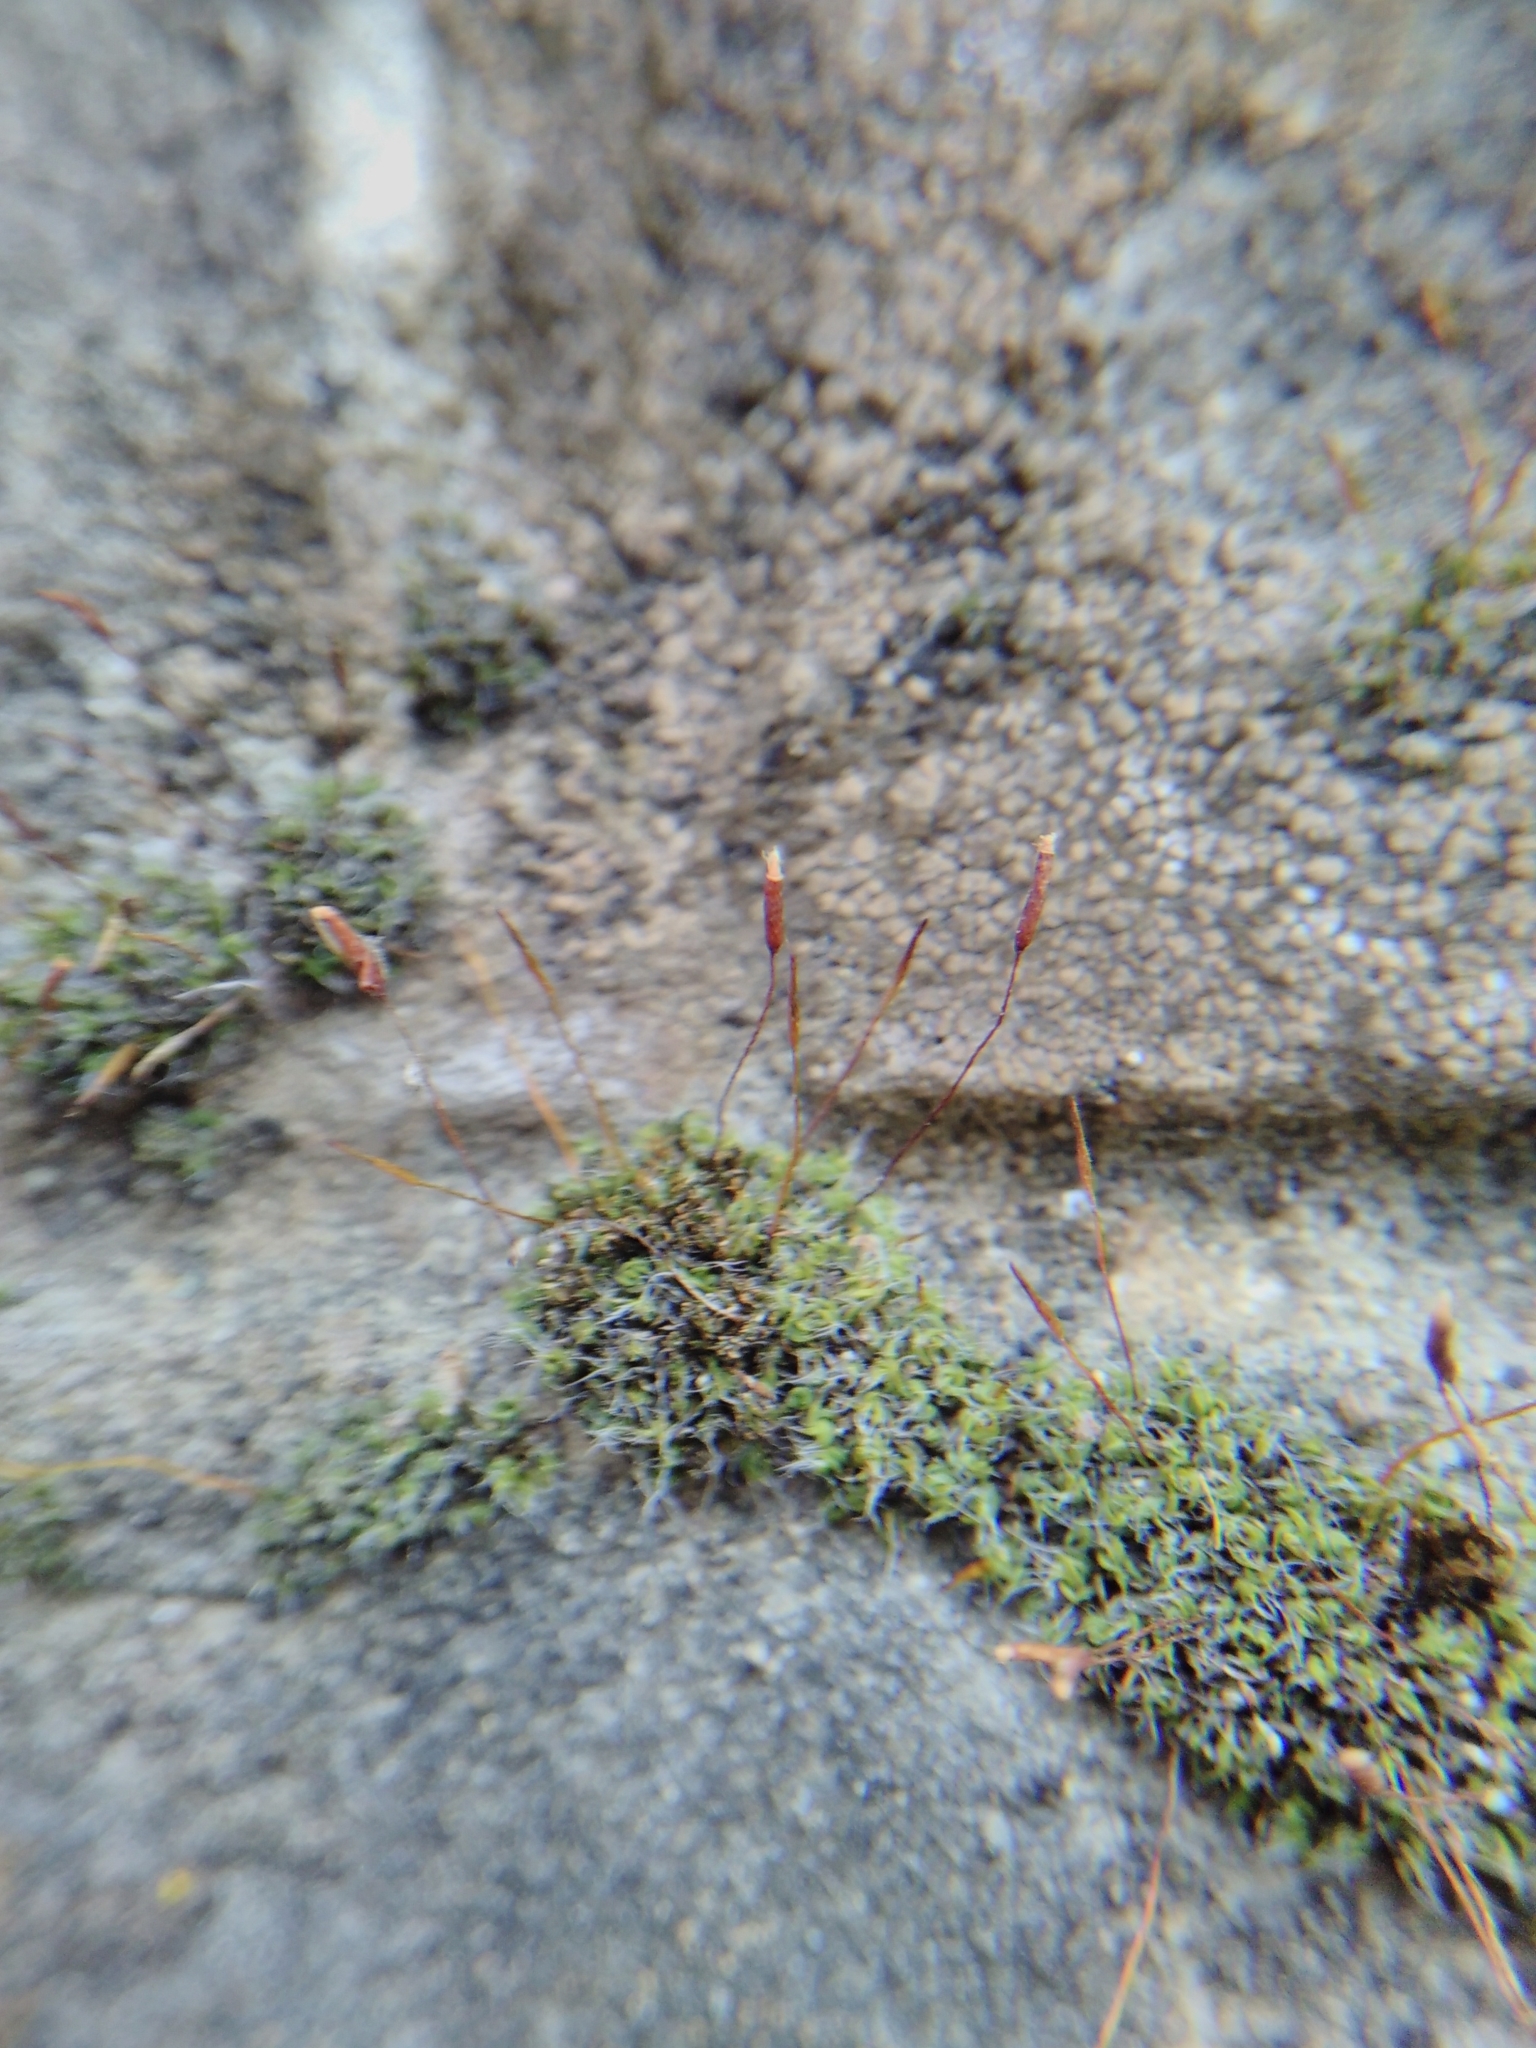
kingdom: Plantae
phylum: Bryophyta
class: Bryopsida
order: Pottiales
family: Pottiaceae
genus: Tortula
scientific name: Tortula muralis
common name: Wall screw-moss
